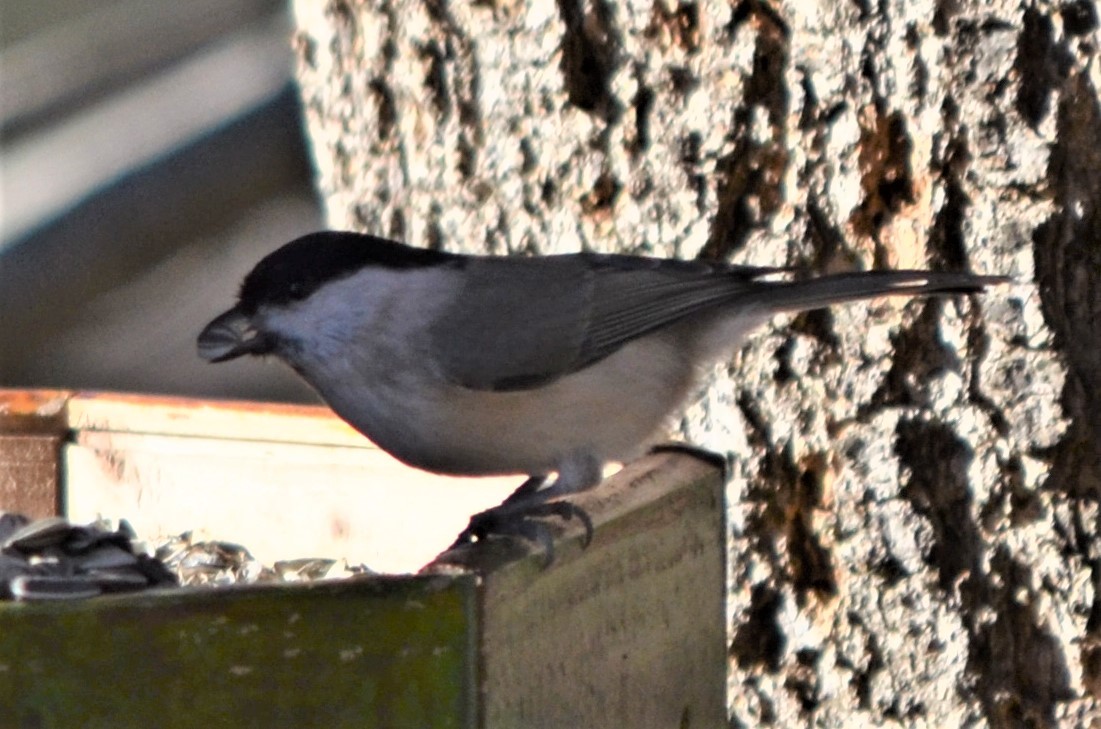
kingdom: Animalia
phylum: Chordata
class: Aves
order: Passeriformes
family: Paridae
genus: Poecile
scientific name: Poecile palustris
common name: Marsh tit
